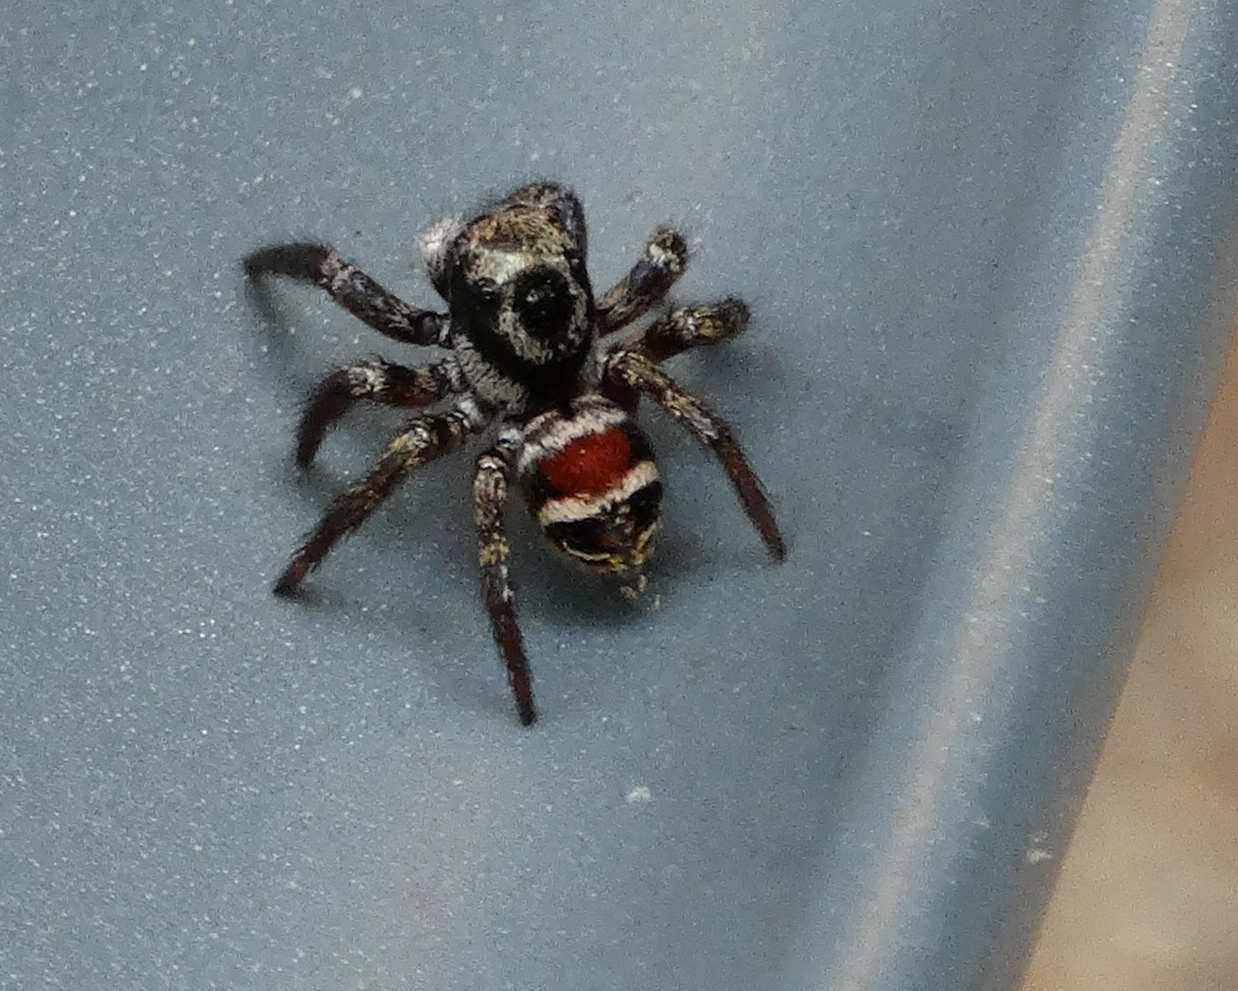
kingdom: Animalia
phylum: Arthropoda
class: Arachnida
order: Araneae
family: Salticidae
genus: Corythalia
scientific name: Corythalia
